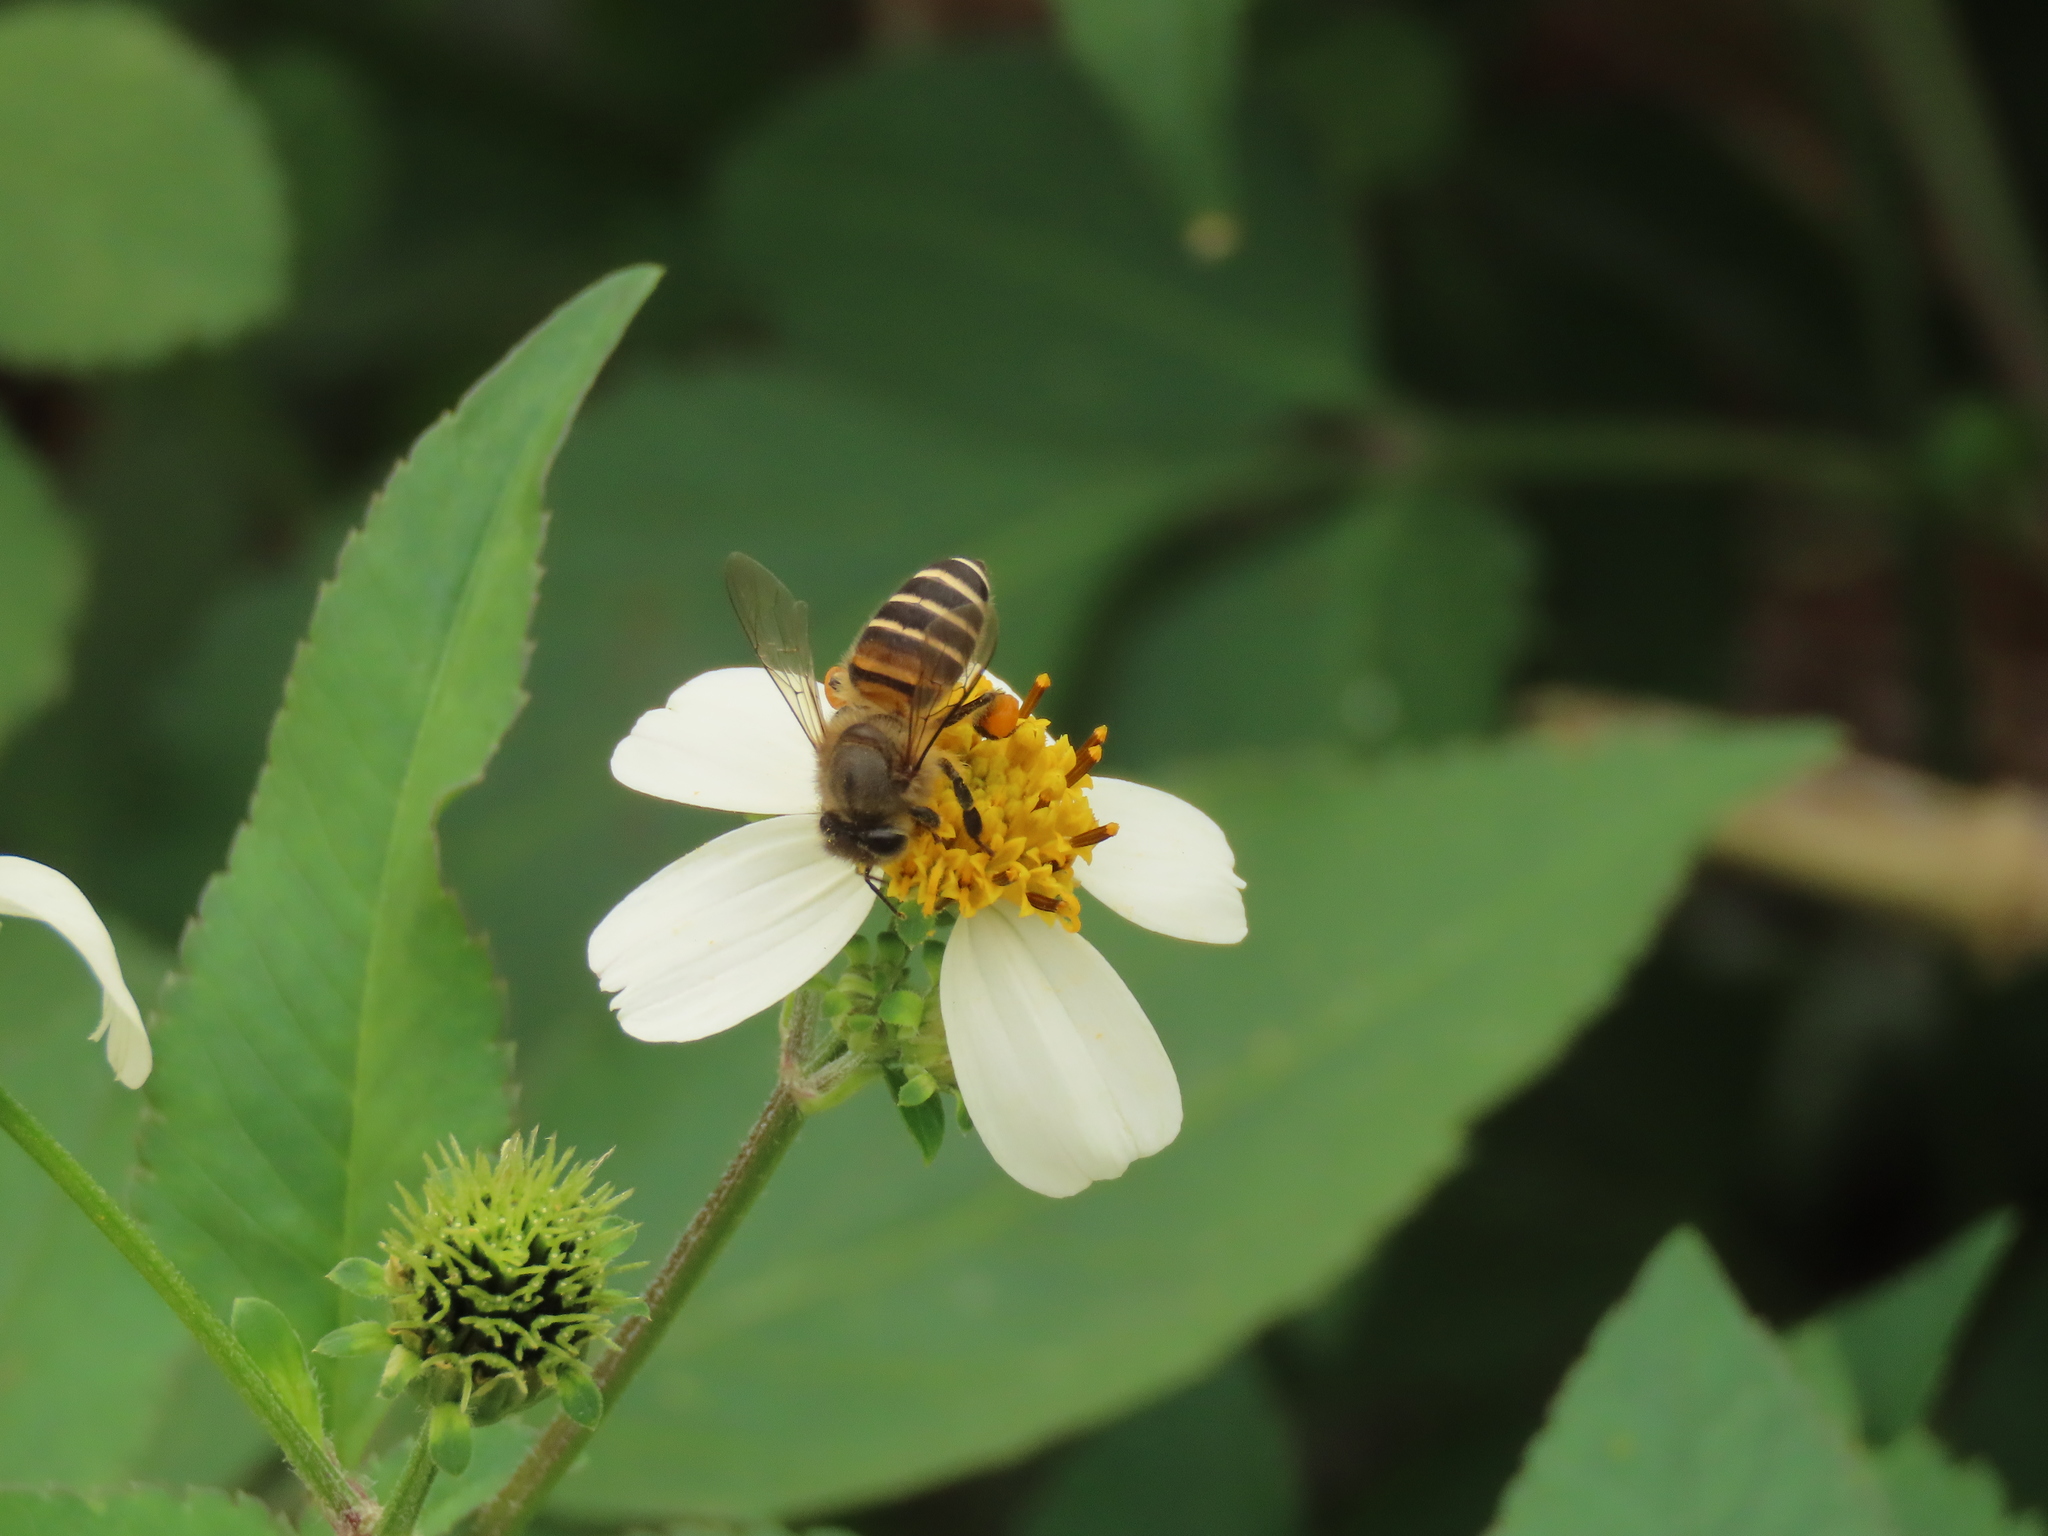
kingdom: Animalia
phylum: Arthropoda
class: Insecta
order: Hymenoptera
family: Apidae
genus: Apis
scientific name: Apis cerana
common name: Honey bee
